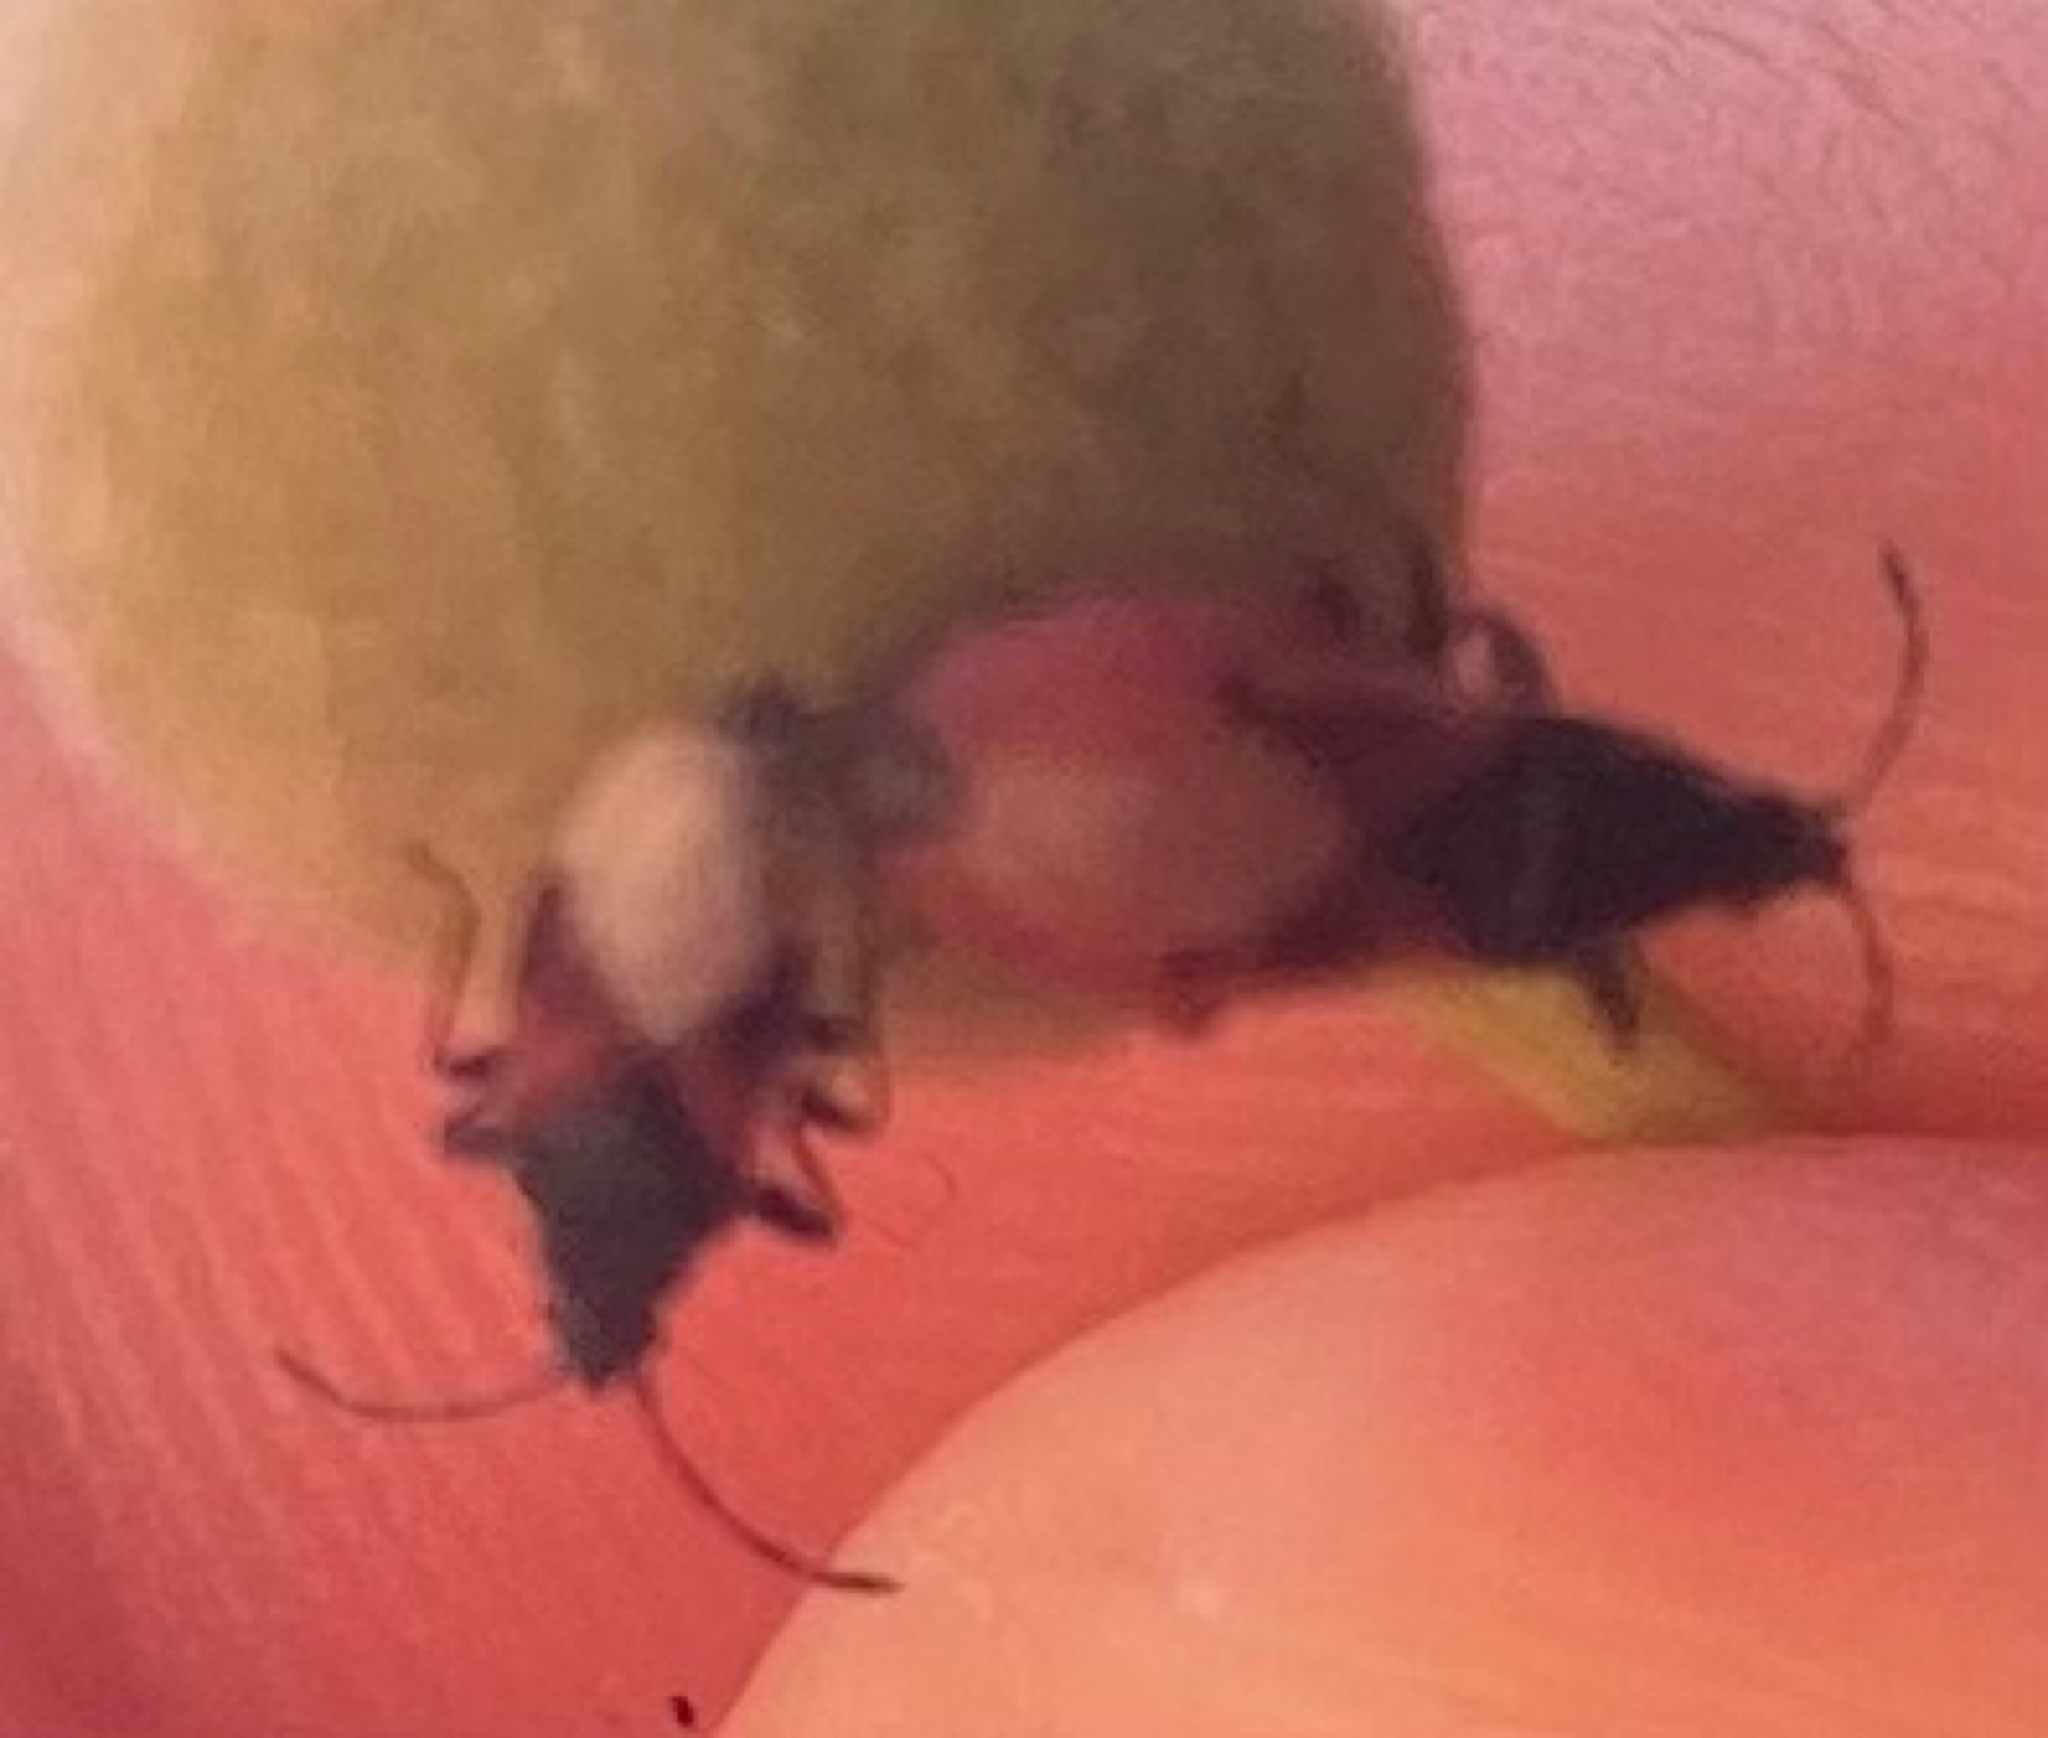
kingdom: Animalia
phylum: Arthropoda
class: Insecta
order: Hemiptera
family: Oxycarenidae
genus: Oxycarenus
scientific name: Oxycarenus lavaterae
